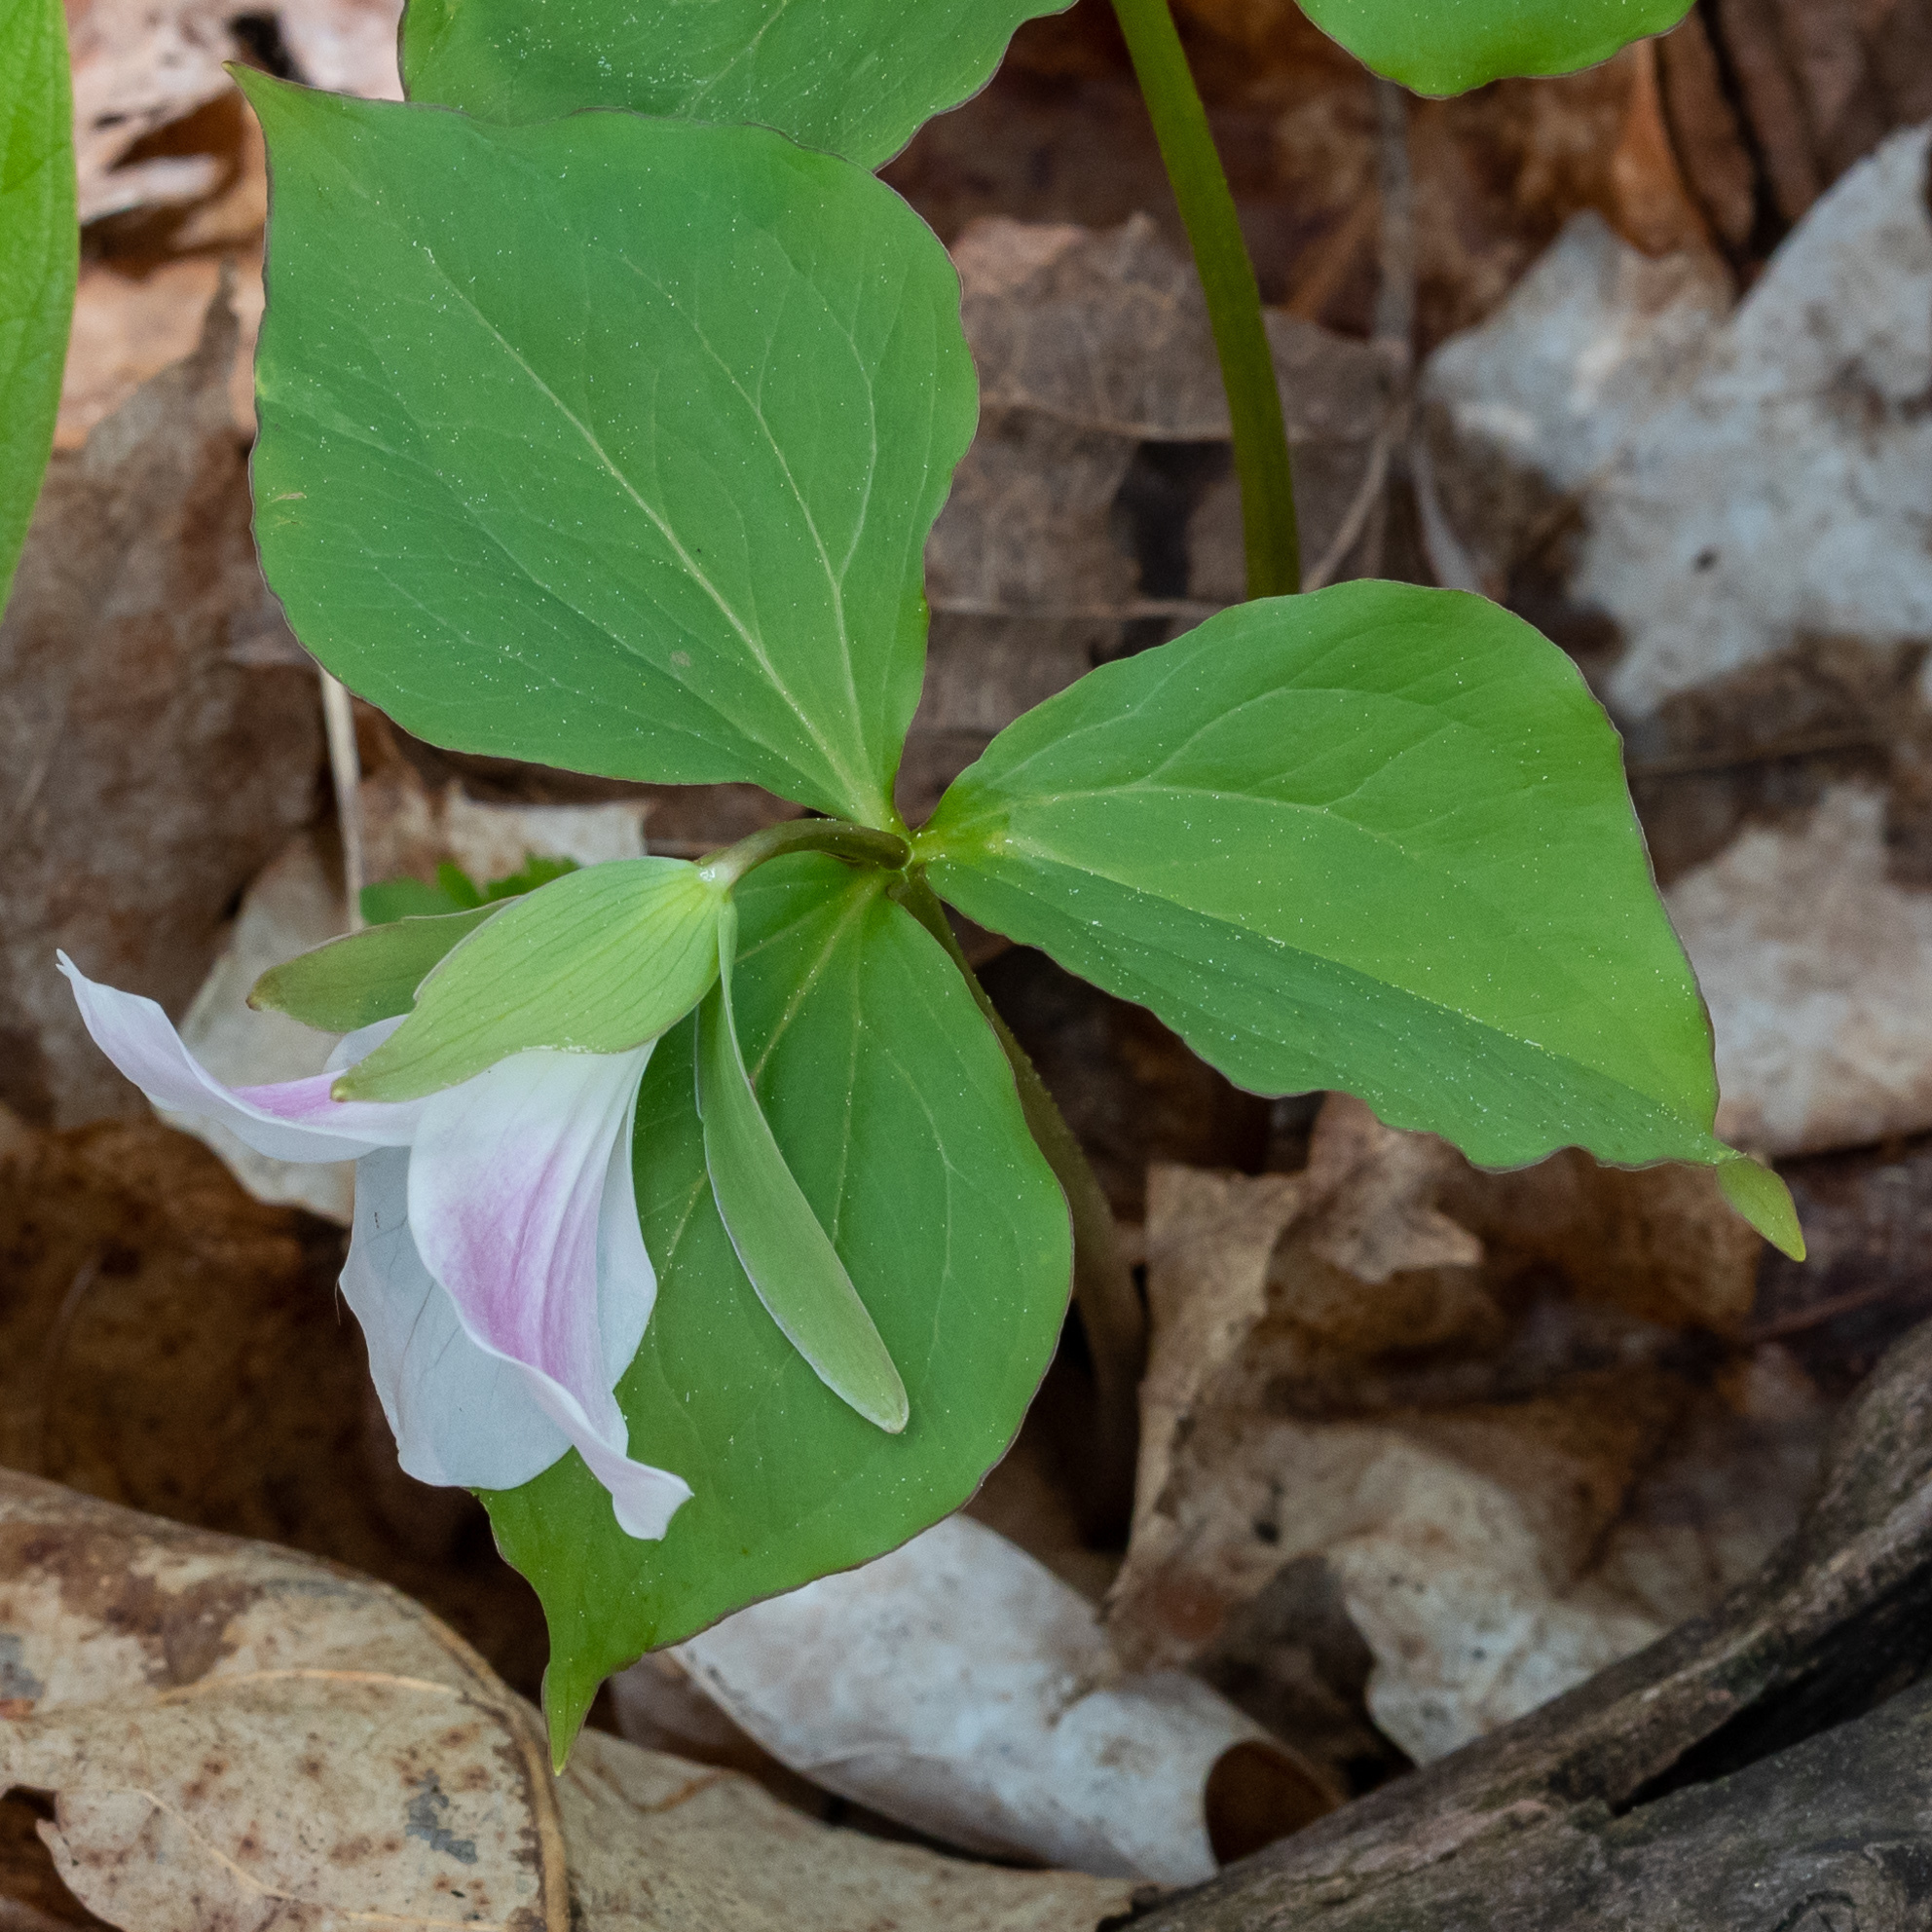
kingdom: Plantae
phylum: Tracheophyta
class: Liliopsida
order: Liliales
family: Melanthiaceae
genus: Trillium
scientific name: Trillium grandiflorum
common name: Great white trillium
